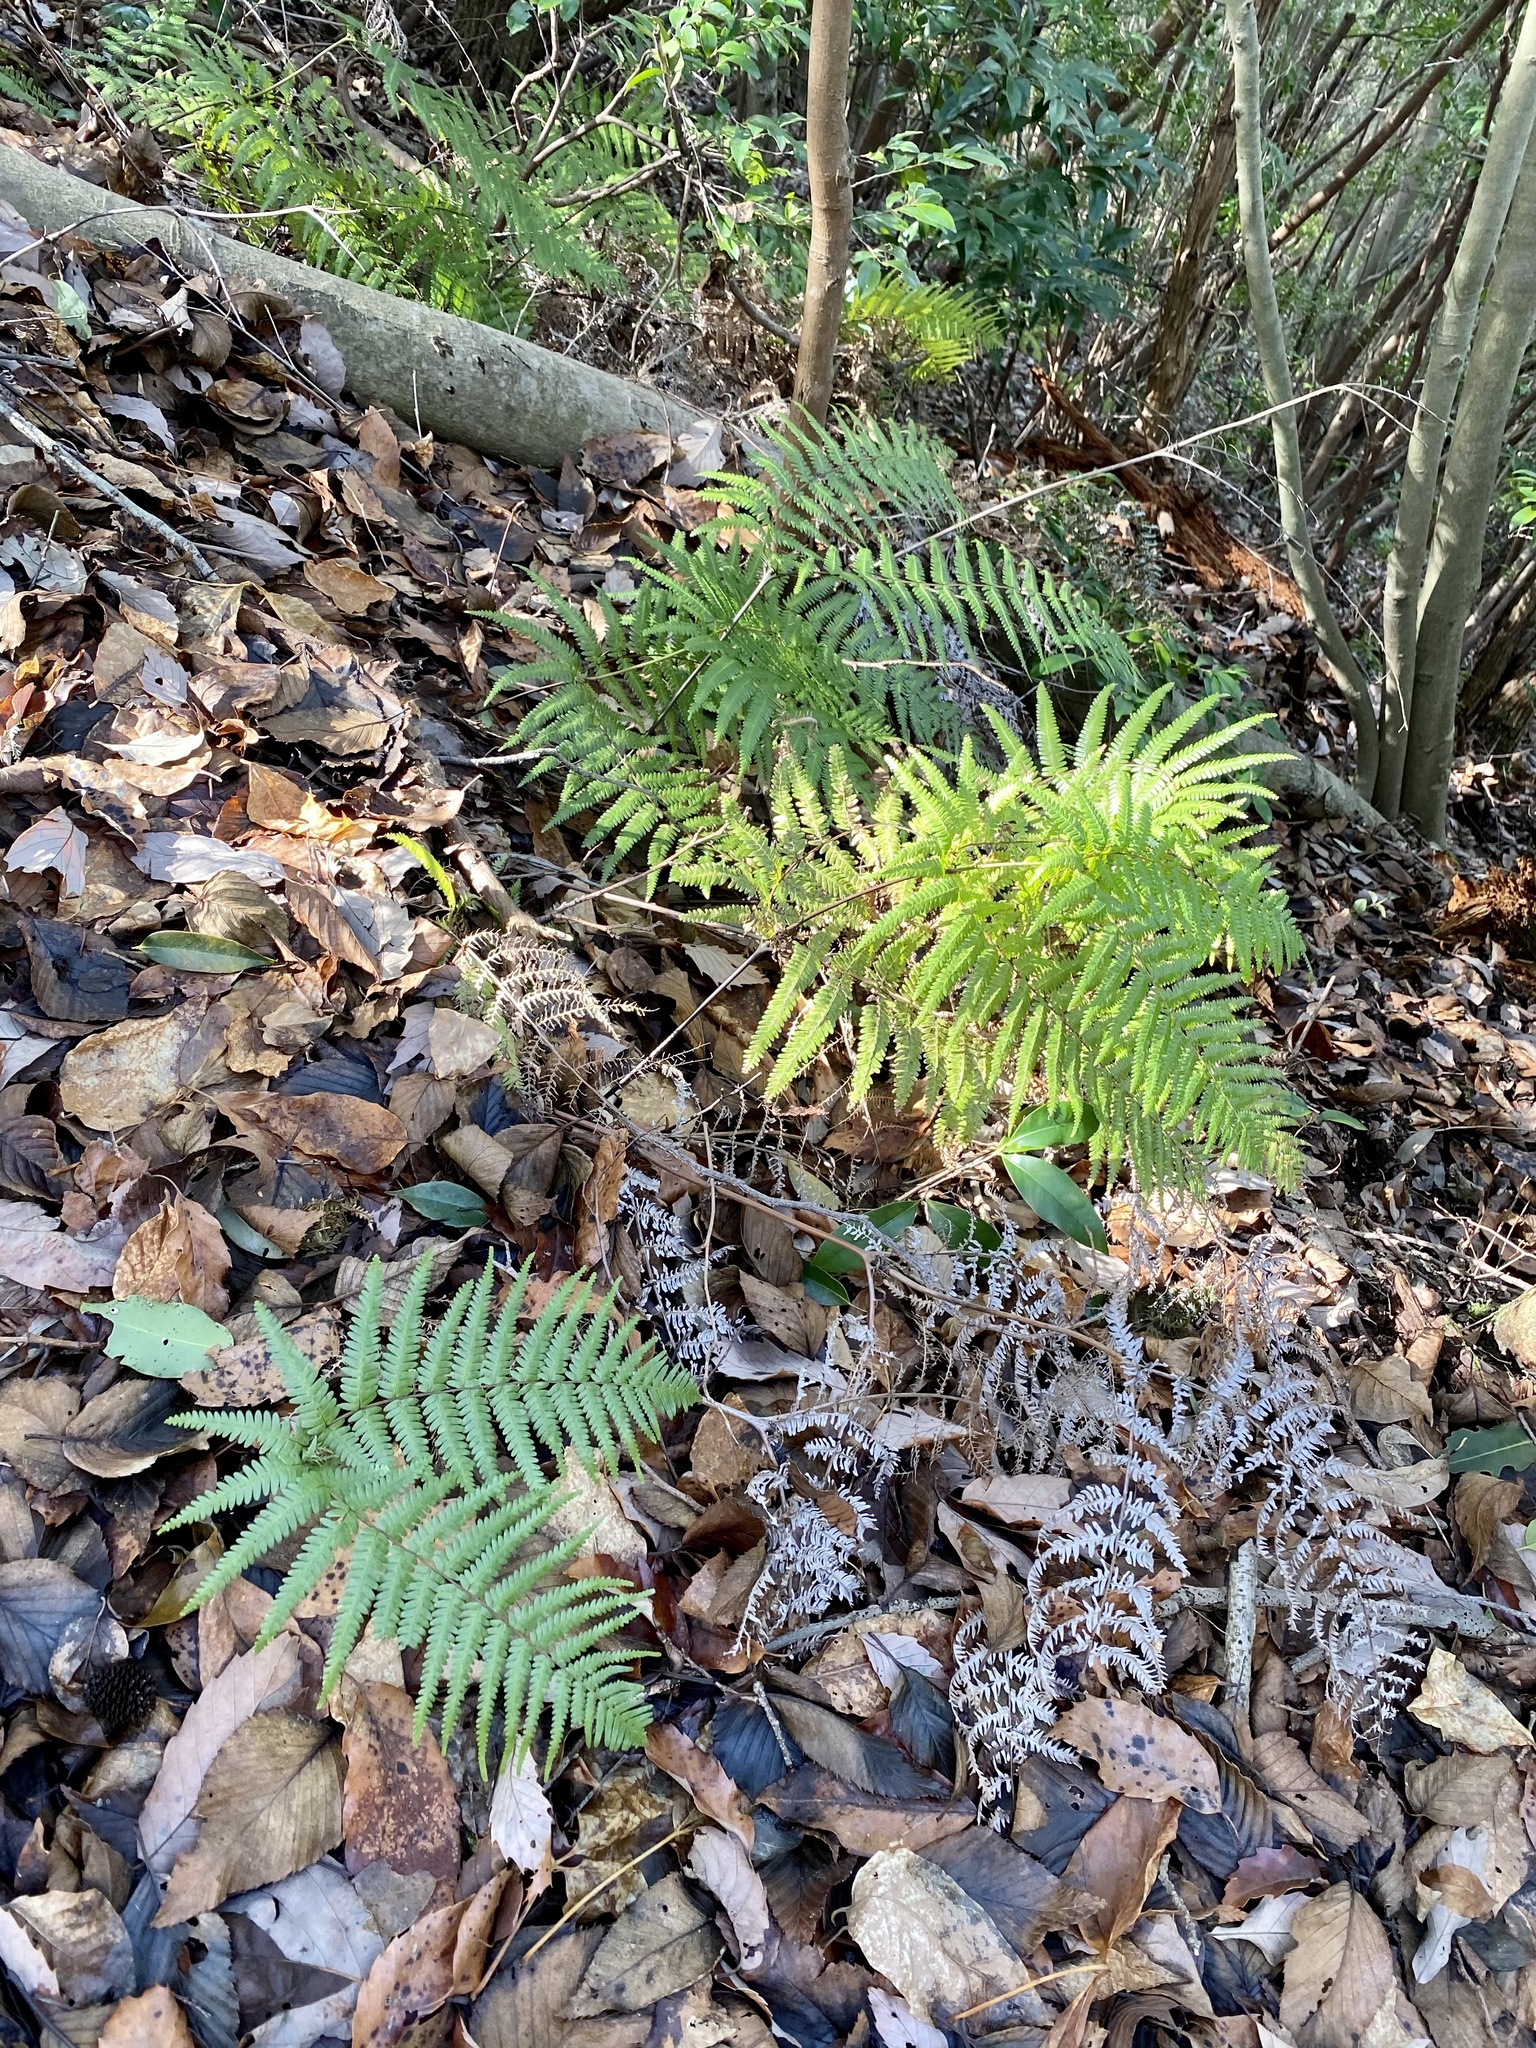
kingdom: Plantae
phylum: Tracheophyta
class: Polypodiopsida
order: Gleicheniales
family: Gleicheniaceae
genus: Diplopterygium
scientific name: Diplopterygium glaucum
